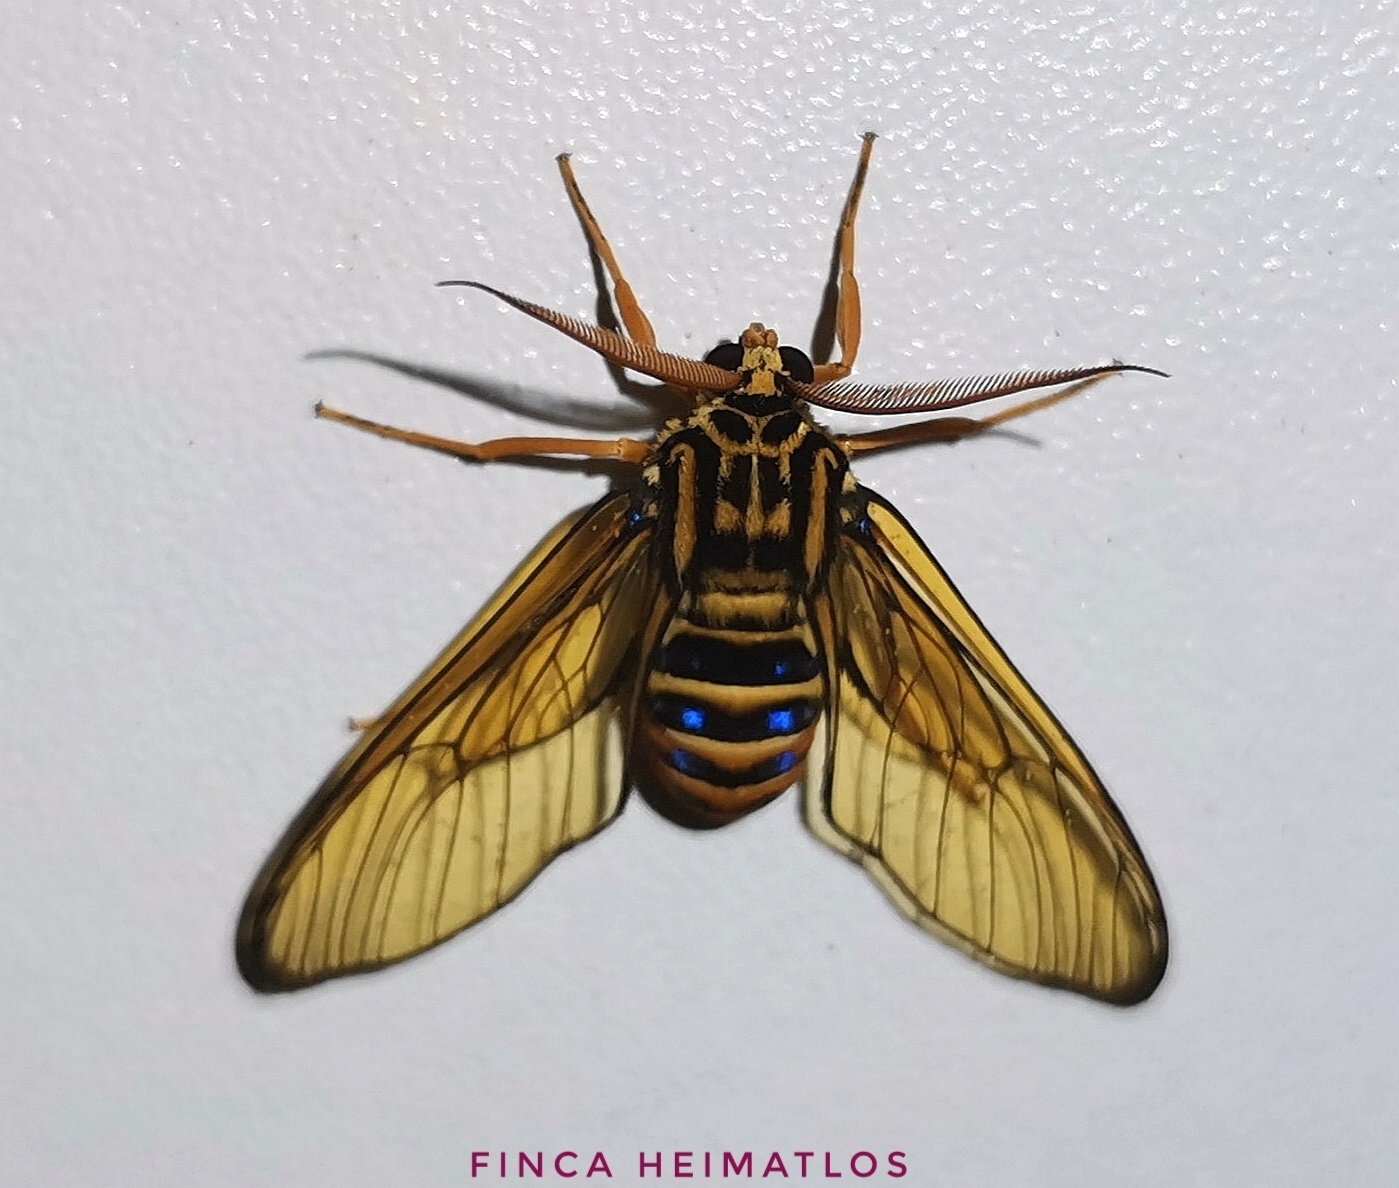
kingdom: Animalia
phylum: Arthropoda
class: Insecta
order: Lepidoptera
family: Erebidae
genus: Gymnelia
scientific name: Gymnelia villia
